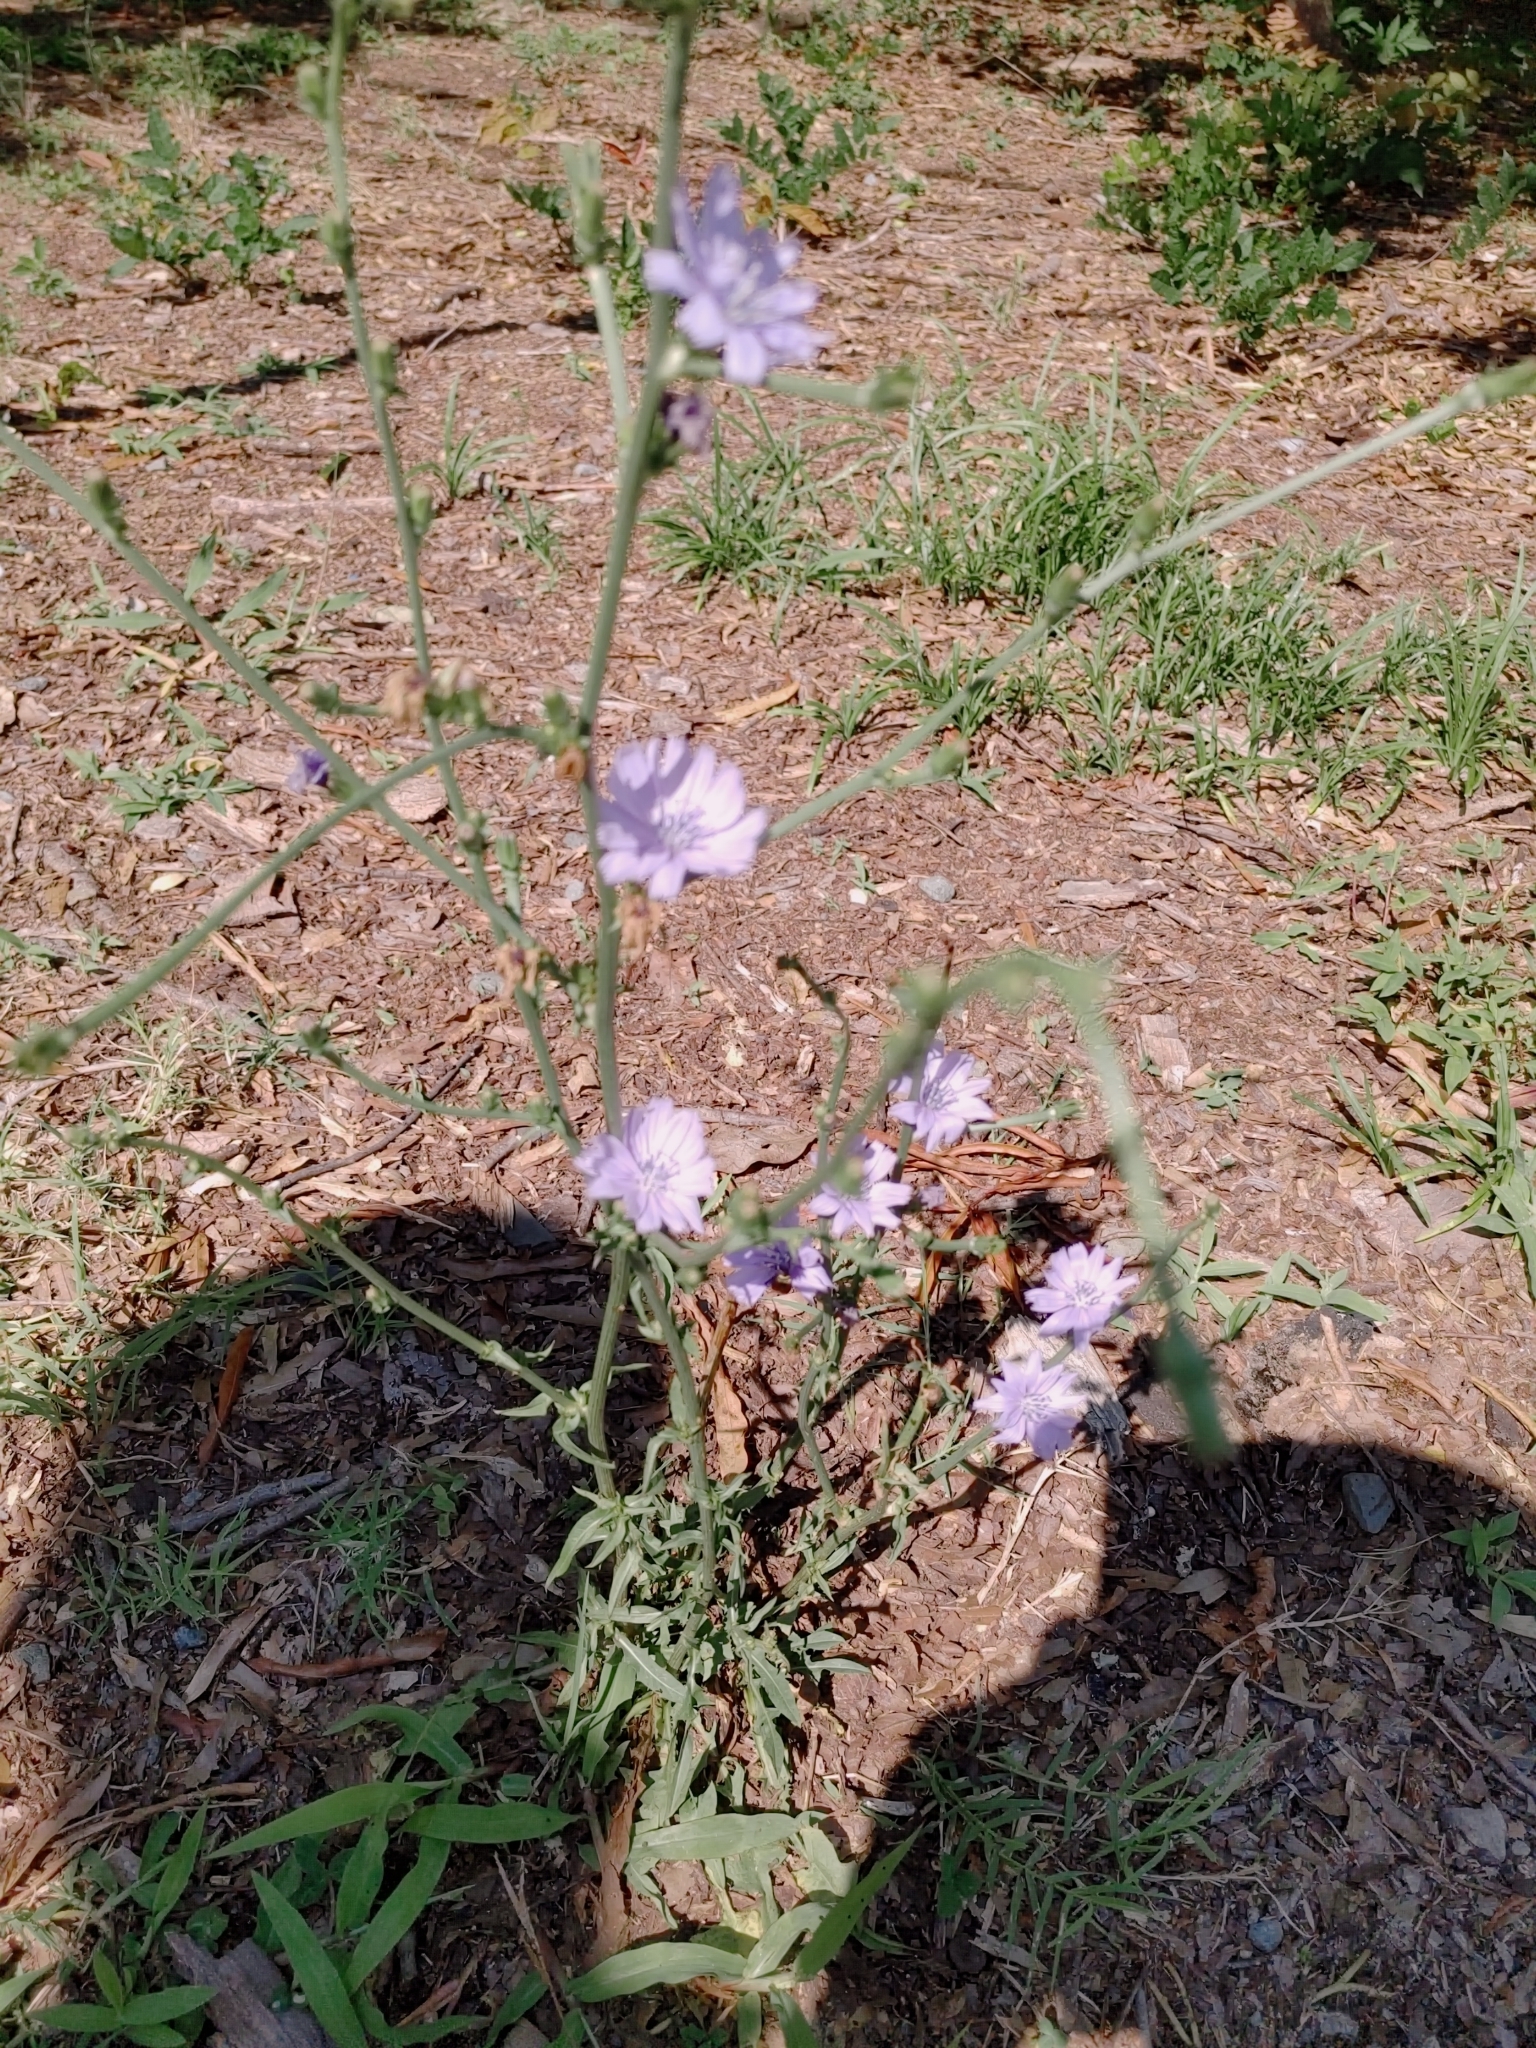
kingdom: Plantae
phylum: Tracheophyta
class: Magnoliopsida
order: Asterales
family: Asteraceae
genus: Cichorium
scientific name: Cichorium intybus
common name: Chicory
